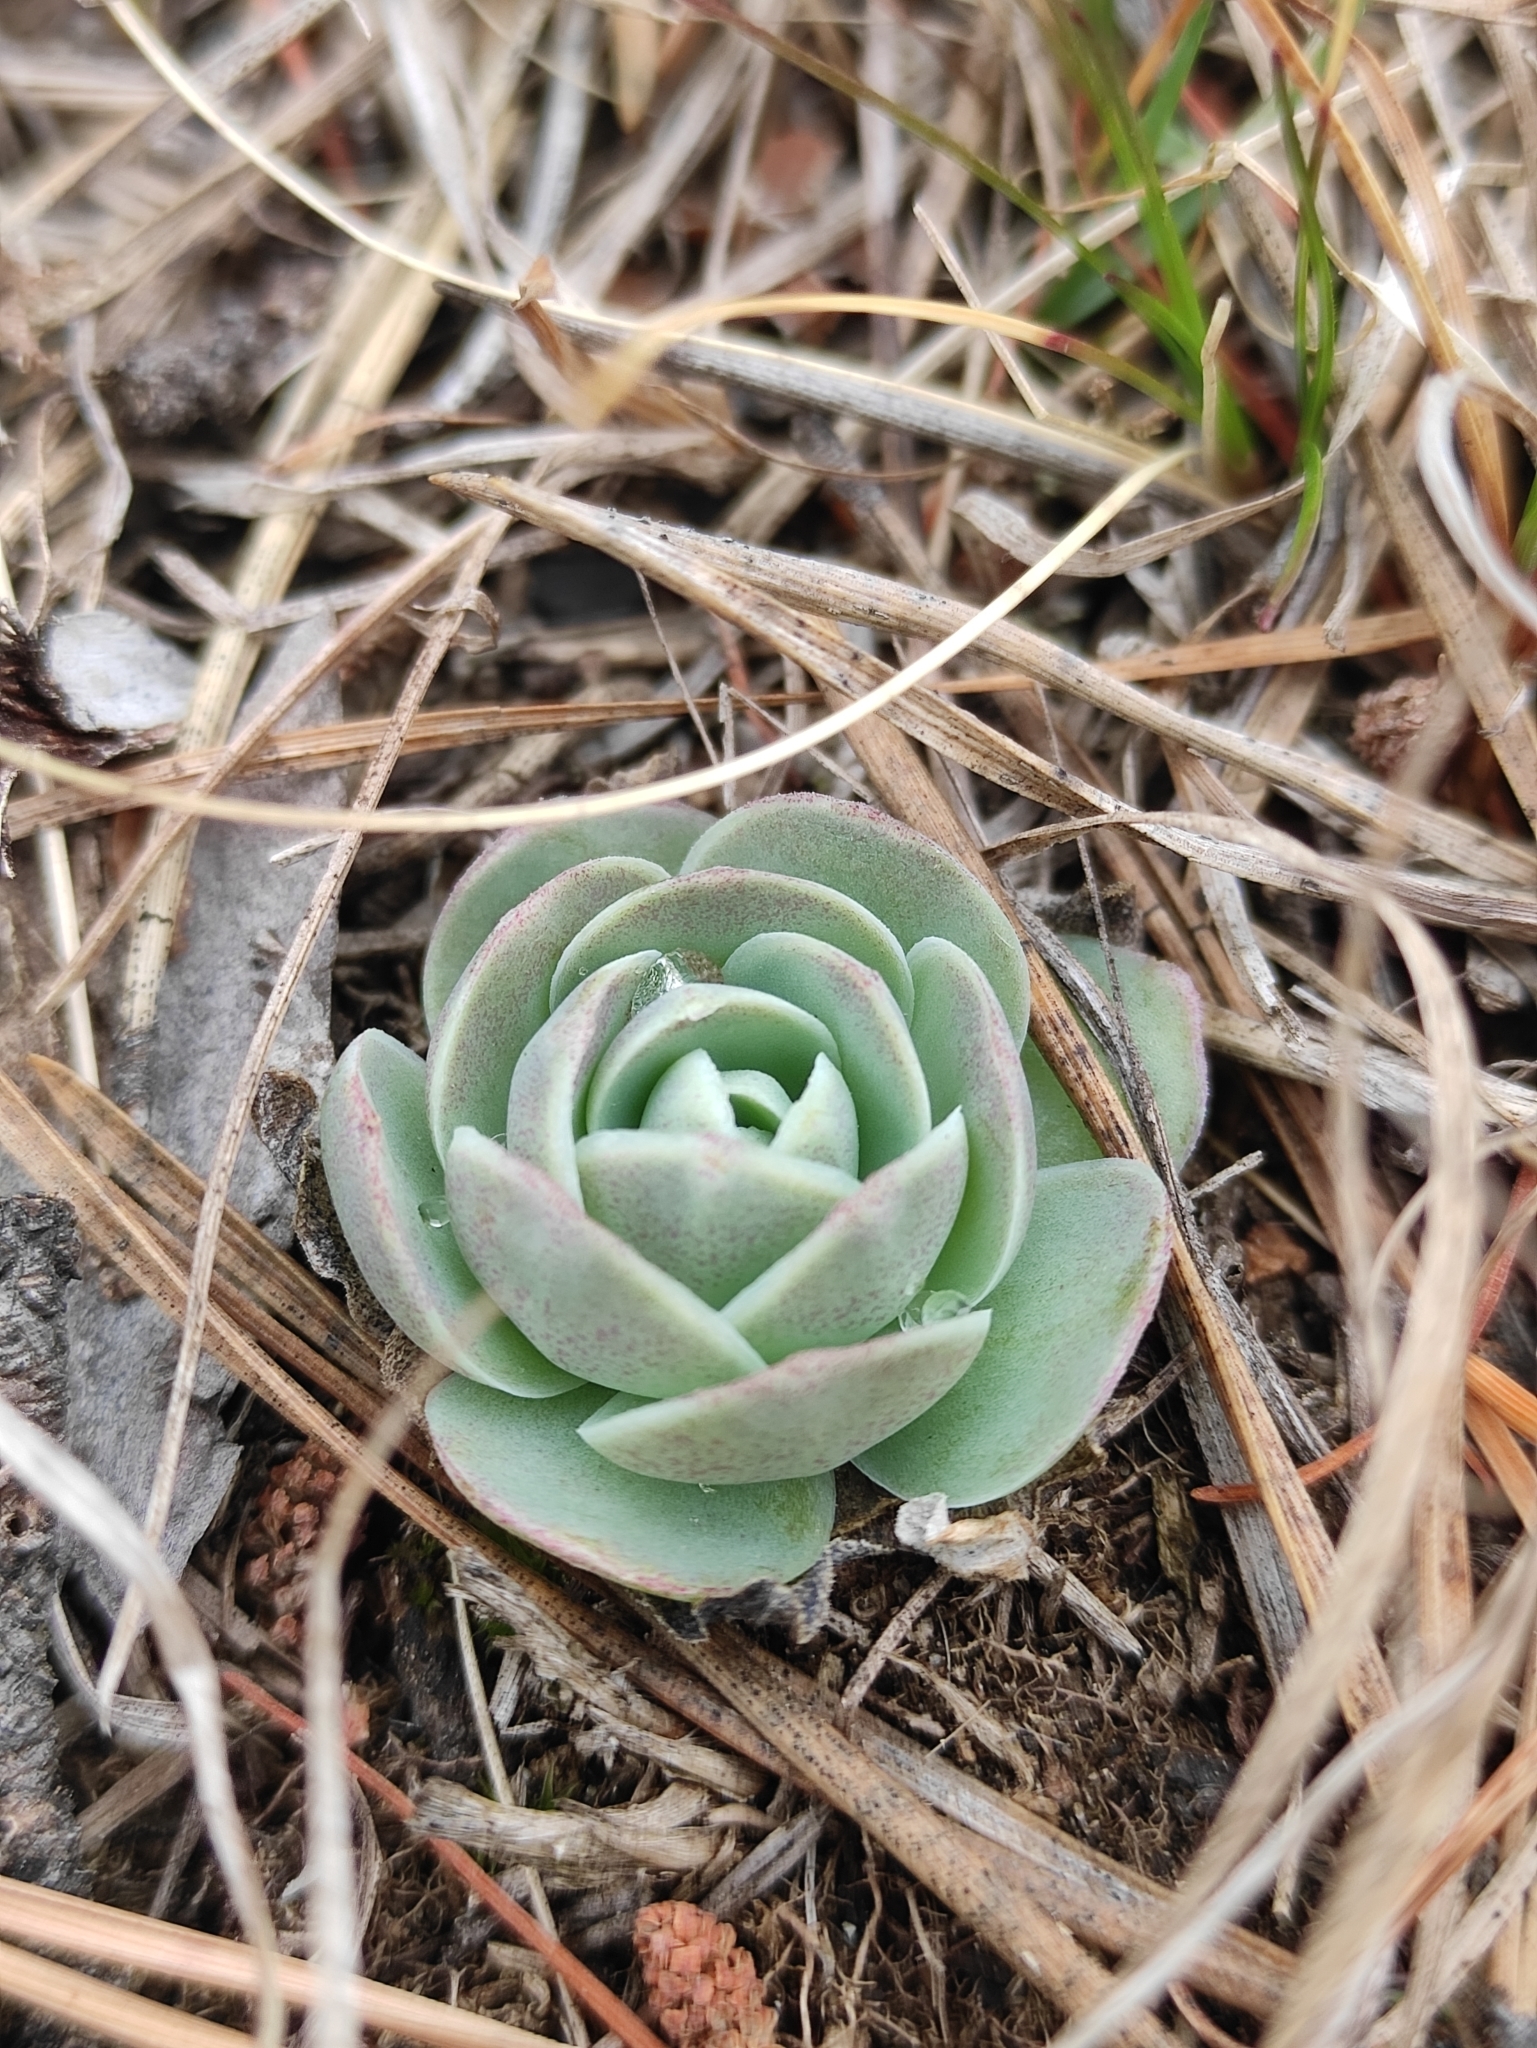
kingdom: Plantae
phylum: Tracheophyta
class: Magnoliopsida
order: Saxifragales
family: Crassulaceae
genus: Orostachys
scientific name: Orostachys malacophylla
